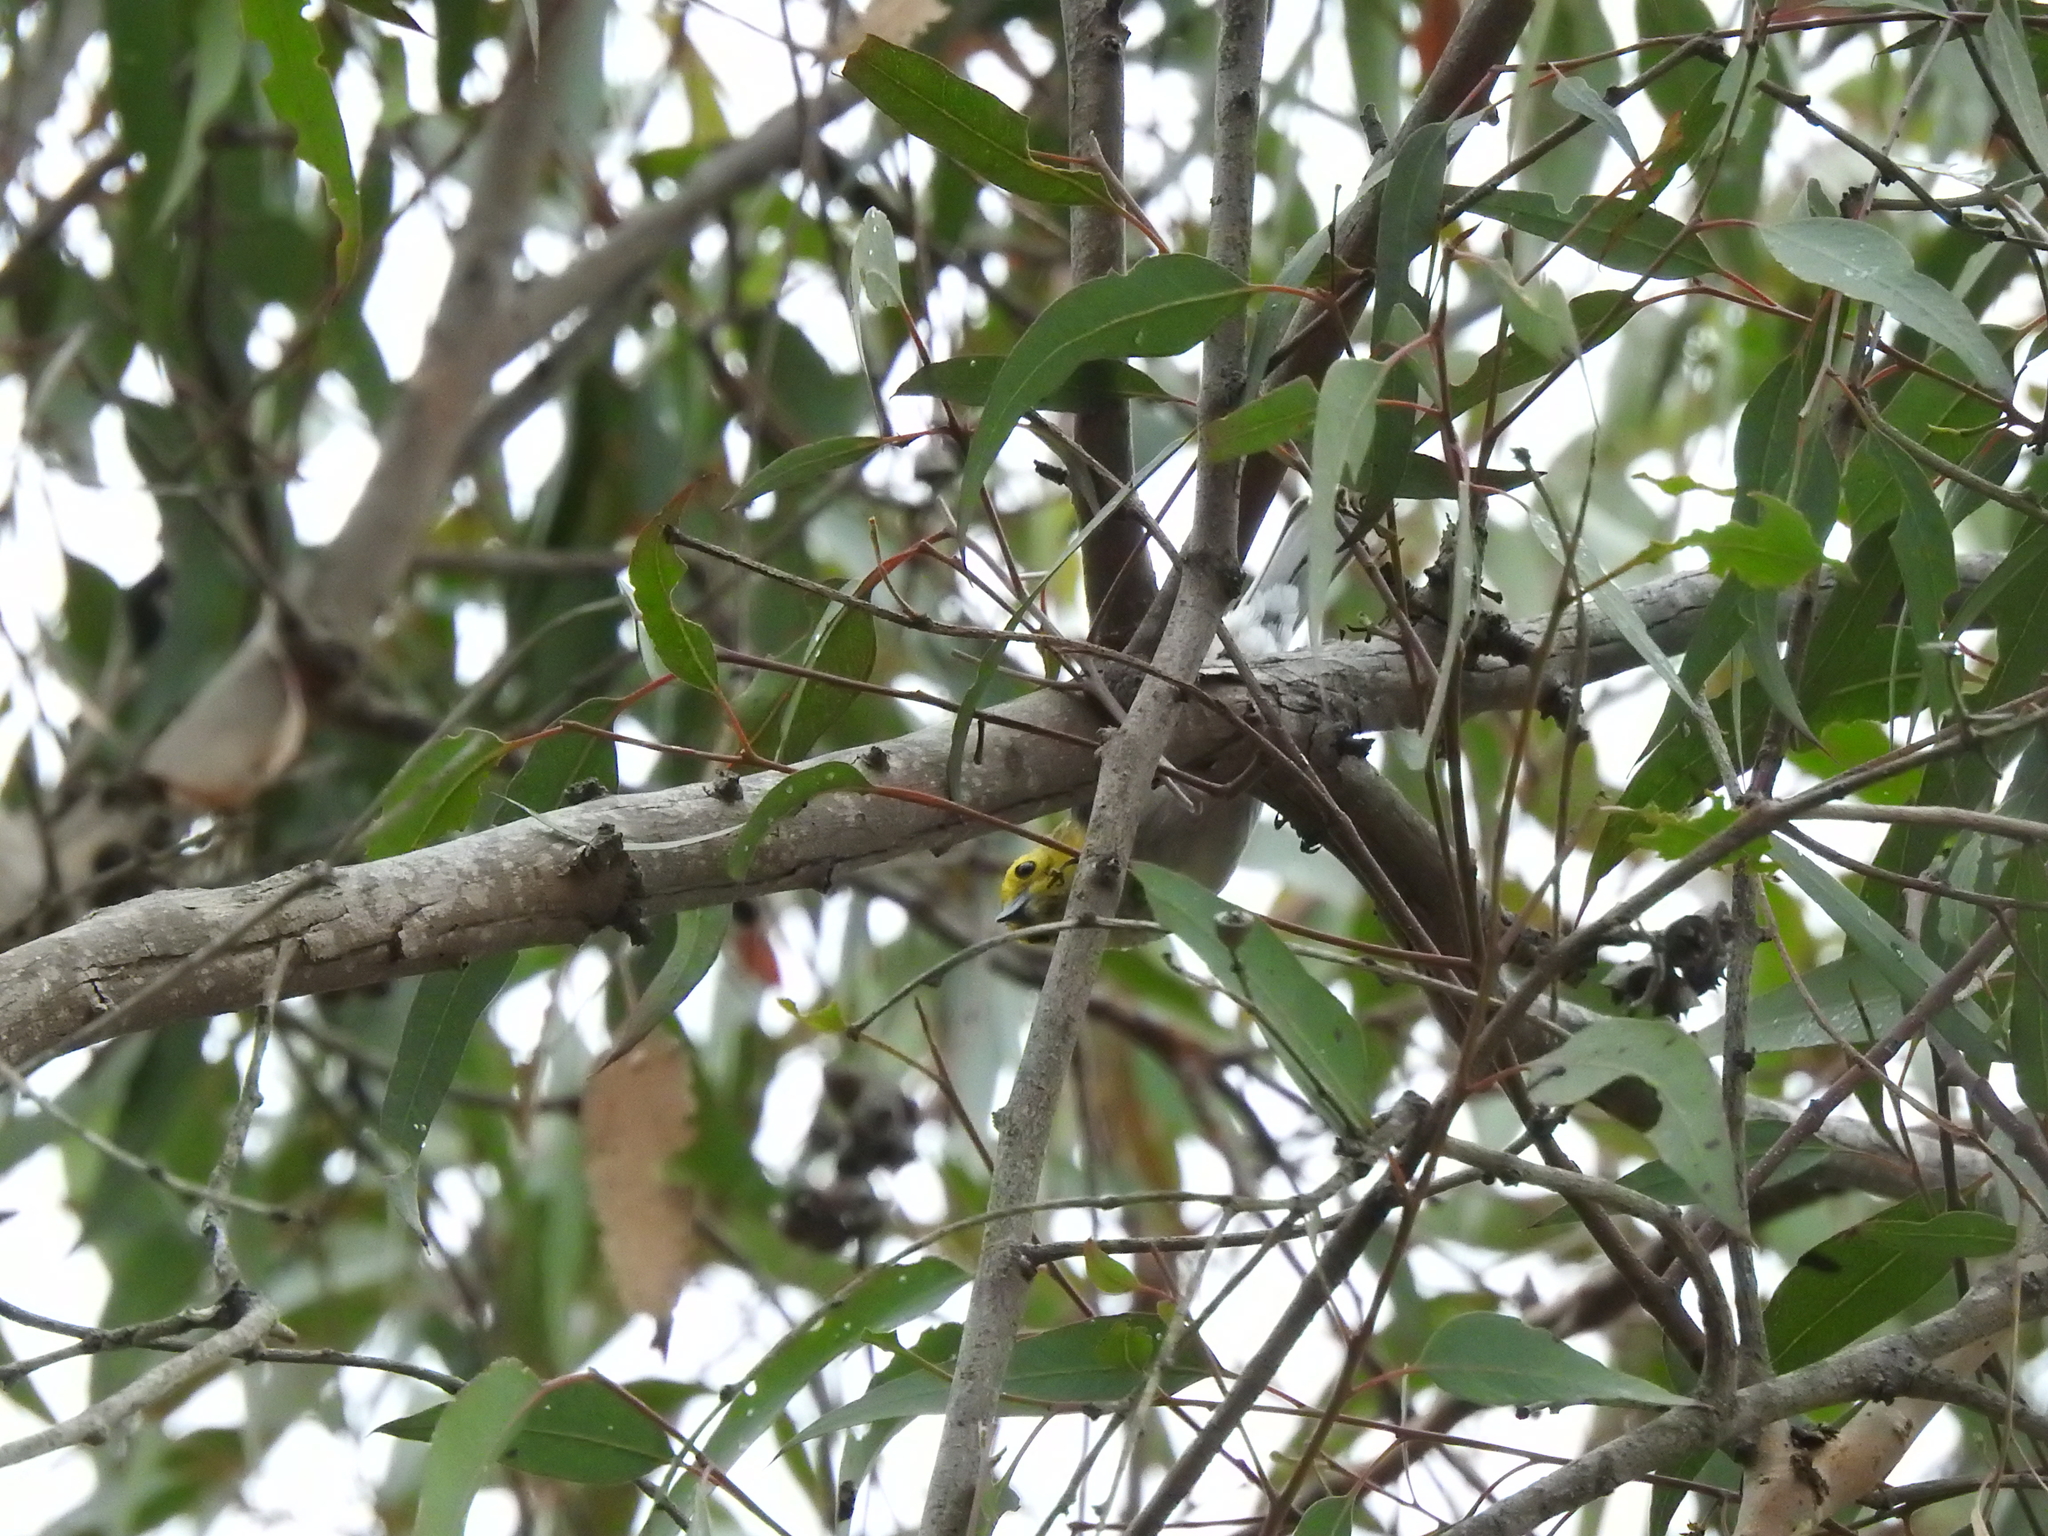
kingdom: Animalia
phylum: Chordata
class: Aves
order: Passeriformes
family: Parulidae
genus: Setophaga
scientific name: Setophaga occidentalis
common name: Hermit warbler
